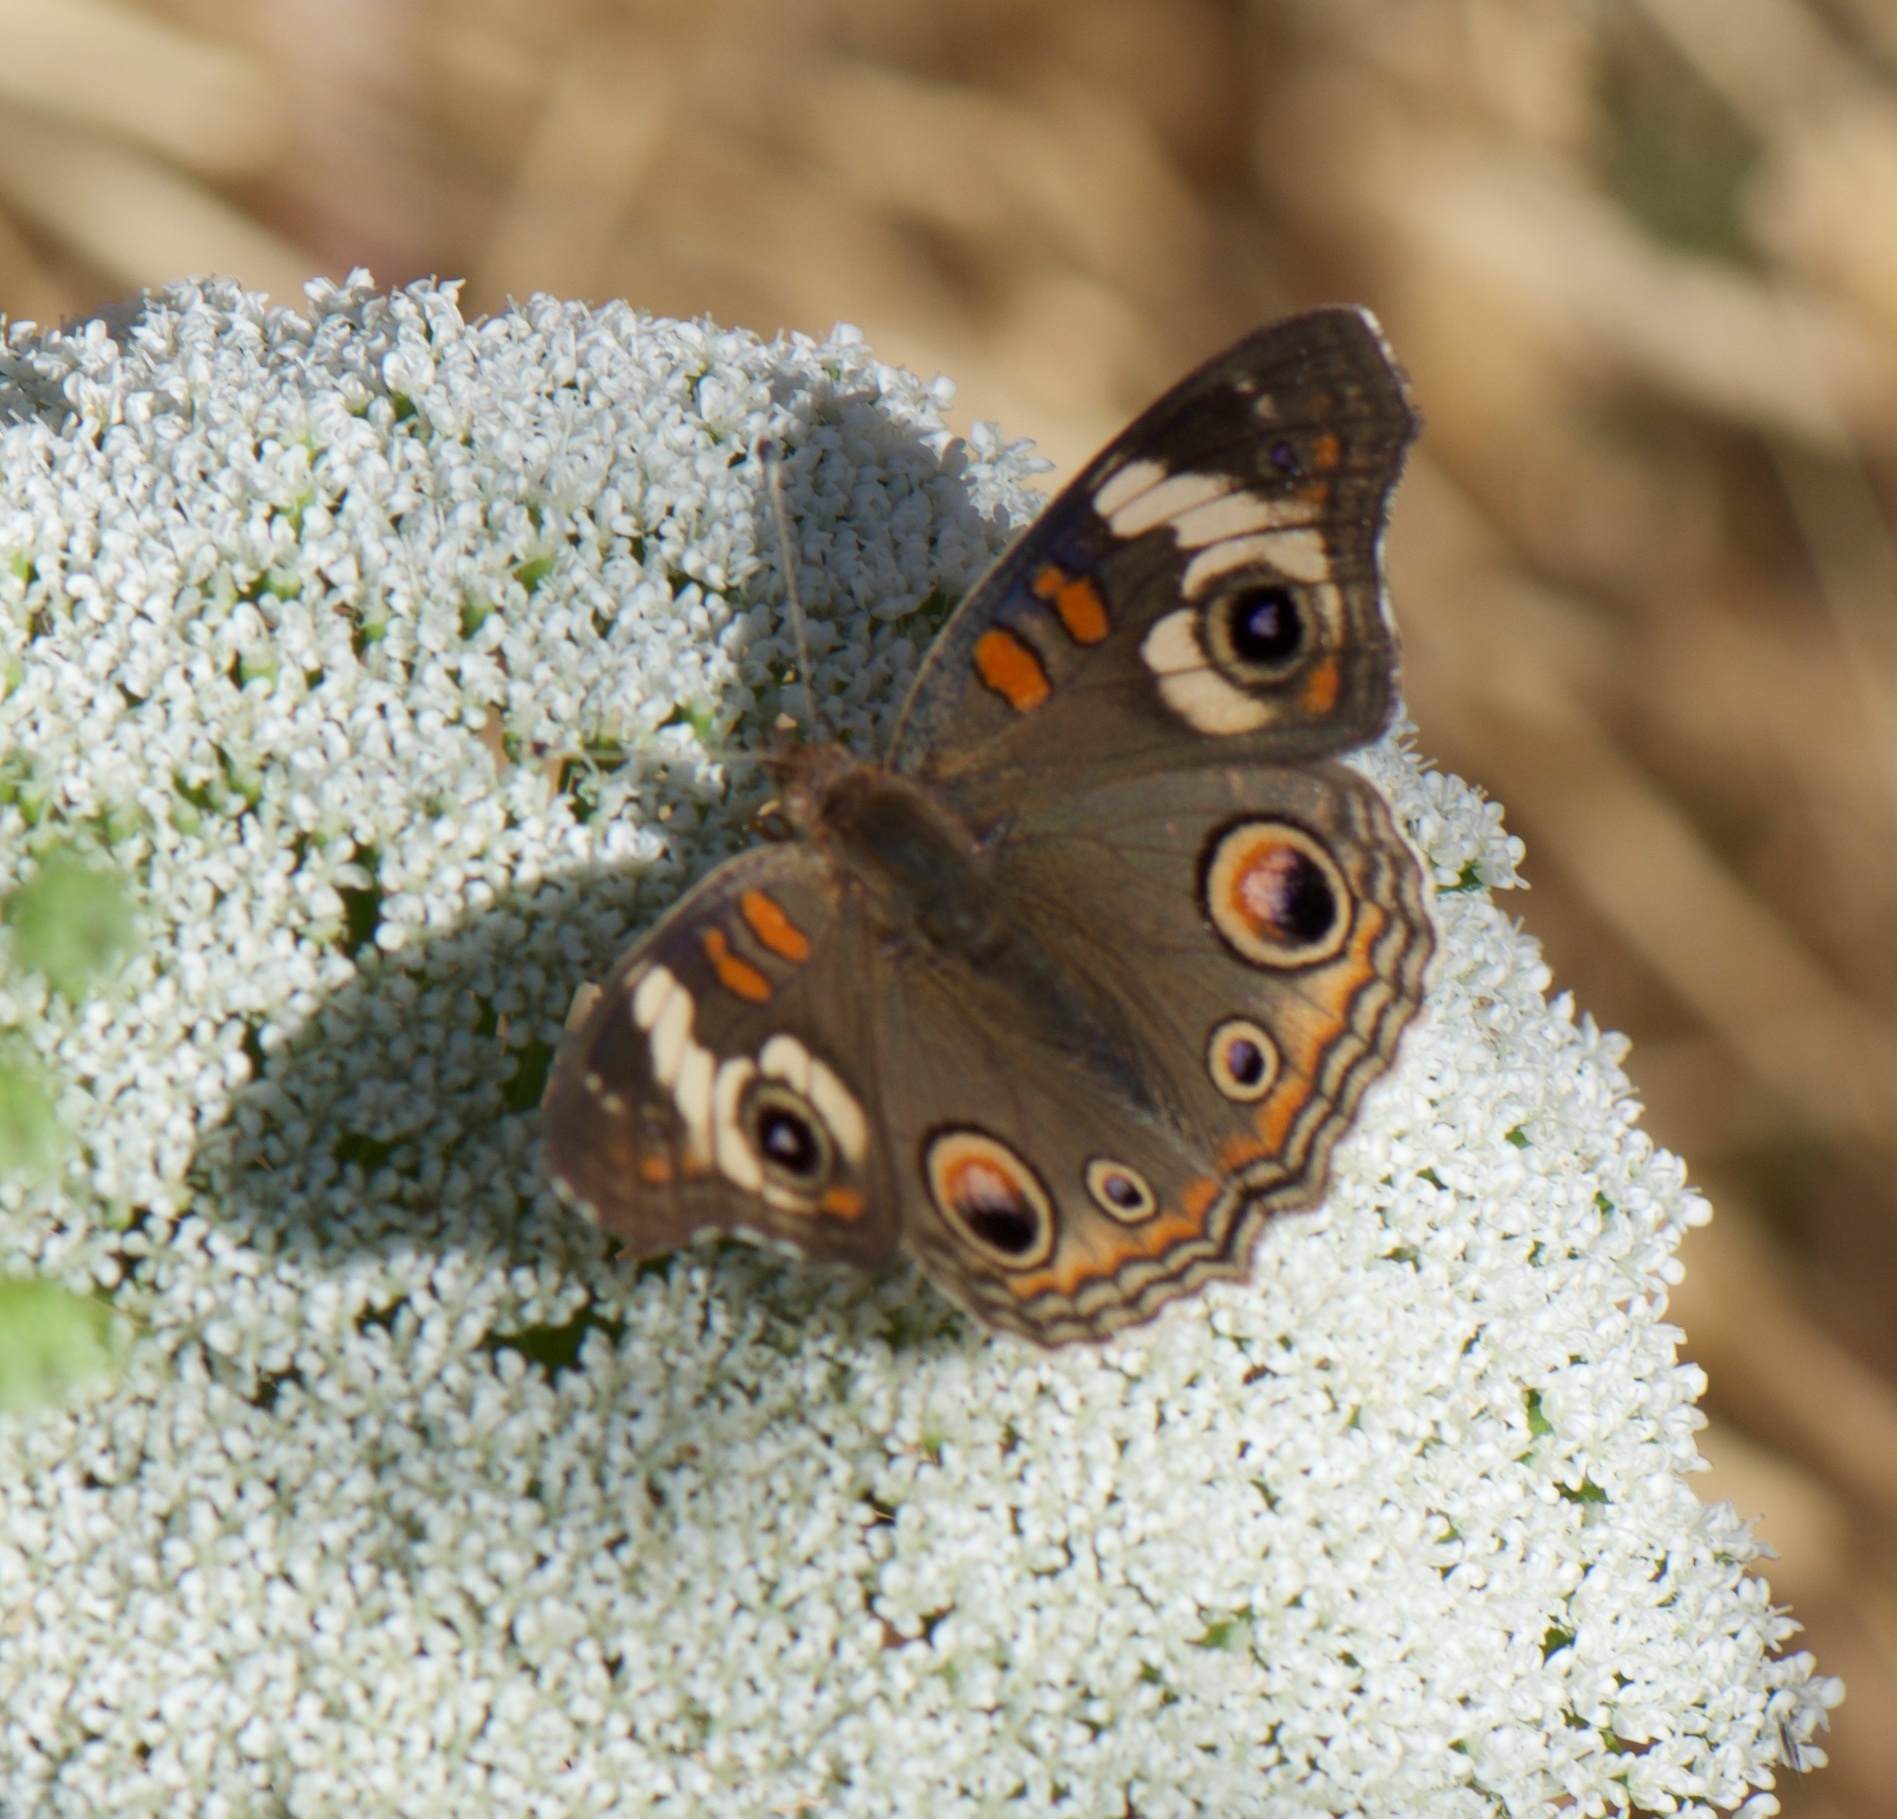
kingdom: Animalia
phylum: Arthropoda
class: Insecta
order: Lepidoptera
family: Nymphalidae
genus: Junonia
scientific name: Junonia grisea
